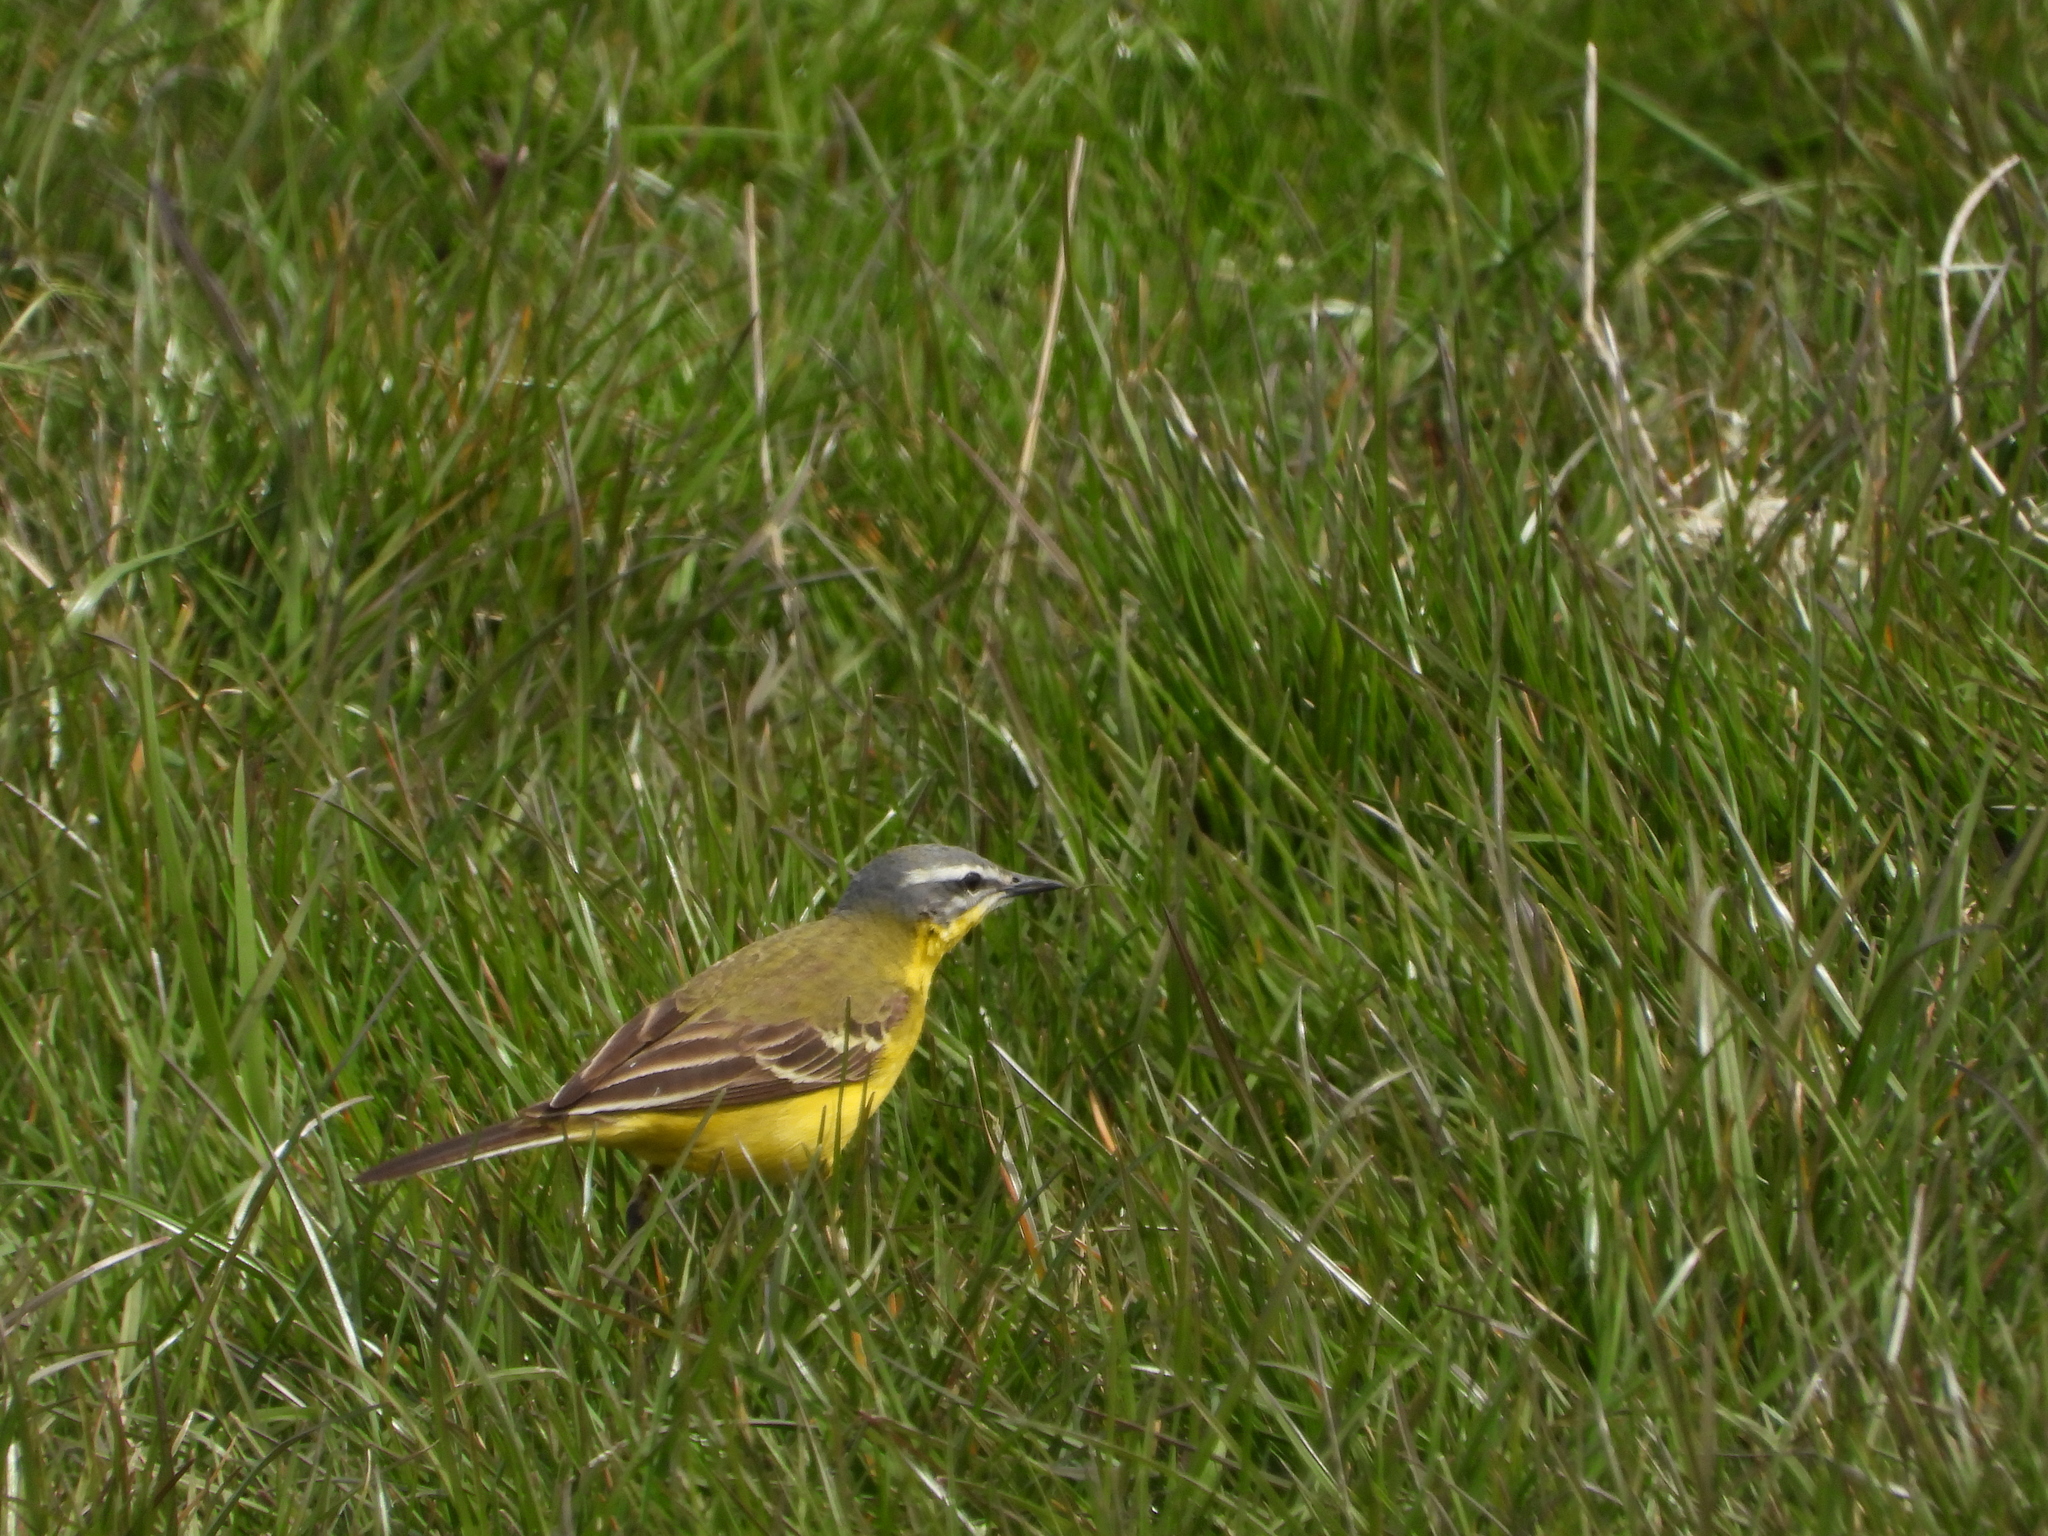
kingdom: Animalia
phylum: Chordata
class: Aves
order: Passeriformes
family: Motacillidae
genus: Motacilla
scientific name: Motacilla flava
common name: Western yellow wagtail
